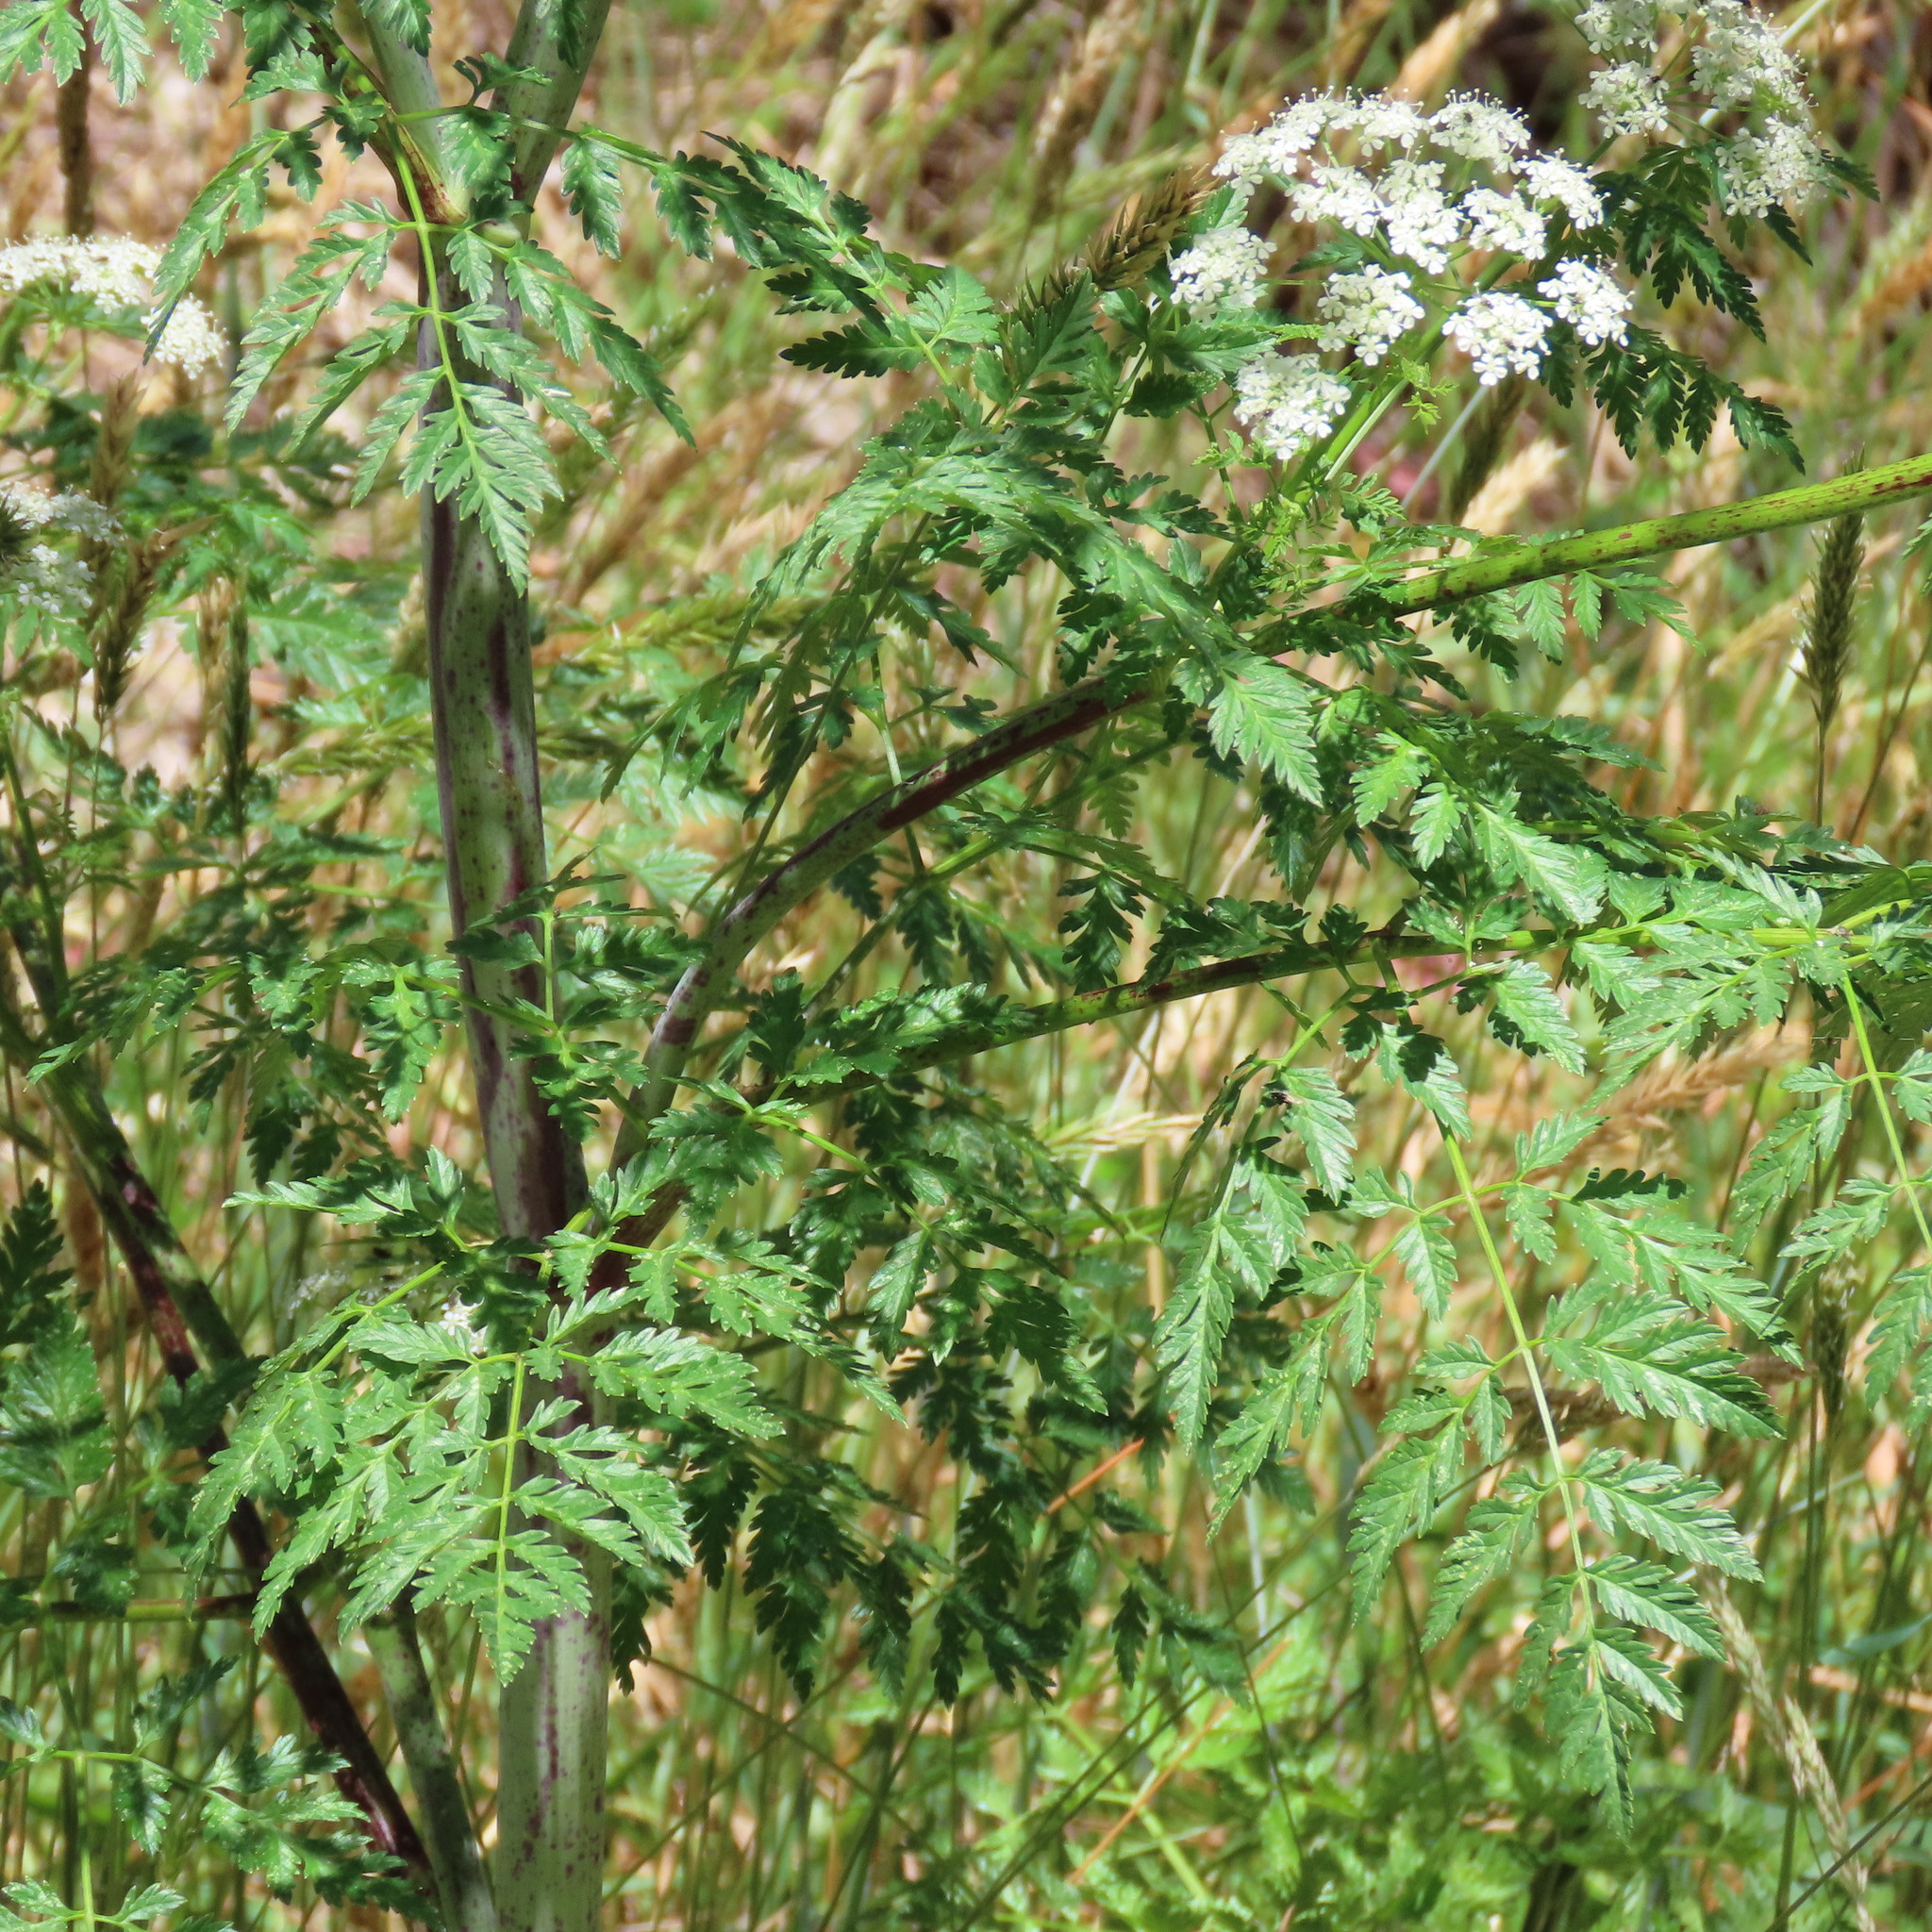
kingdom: Plantae
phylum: Tracheophyta
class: Magnoliopsida
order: Apiales
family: Apiaceae
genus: Conium
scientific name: Conium maculatum
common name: Hemlock
